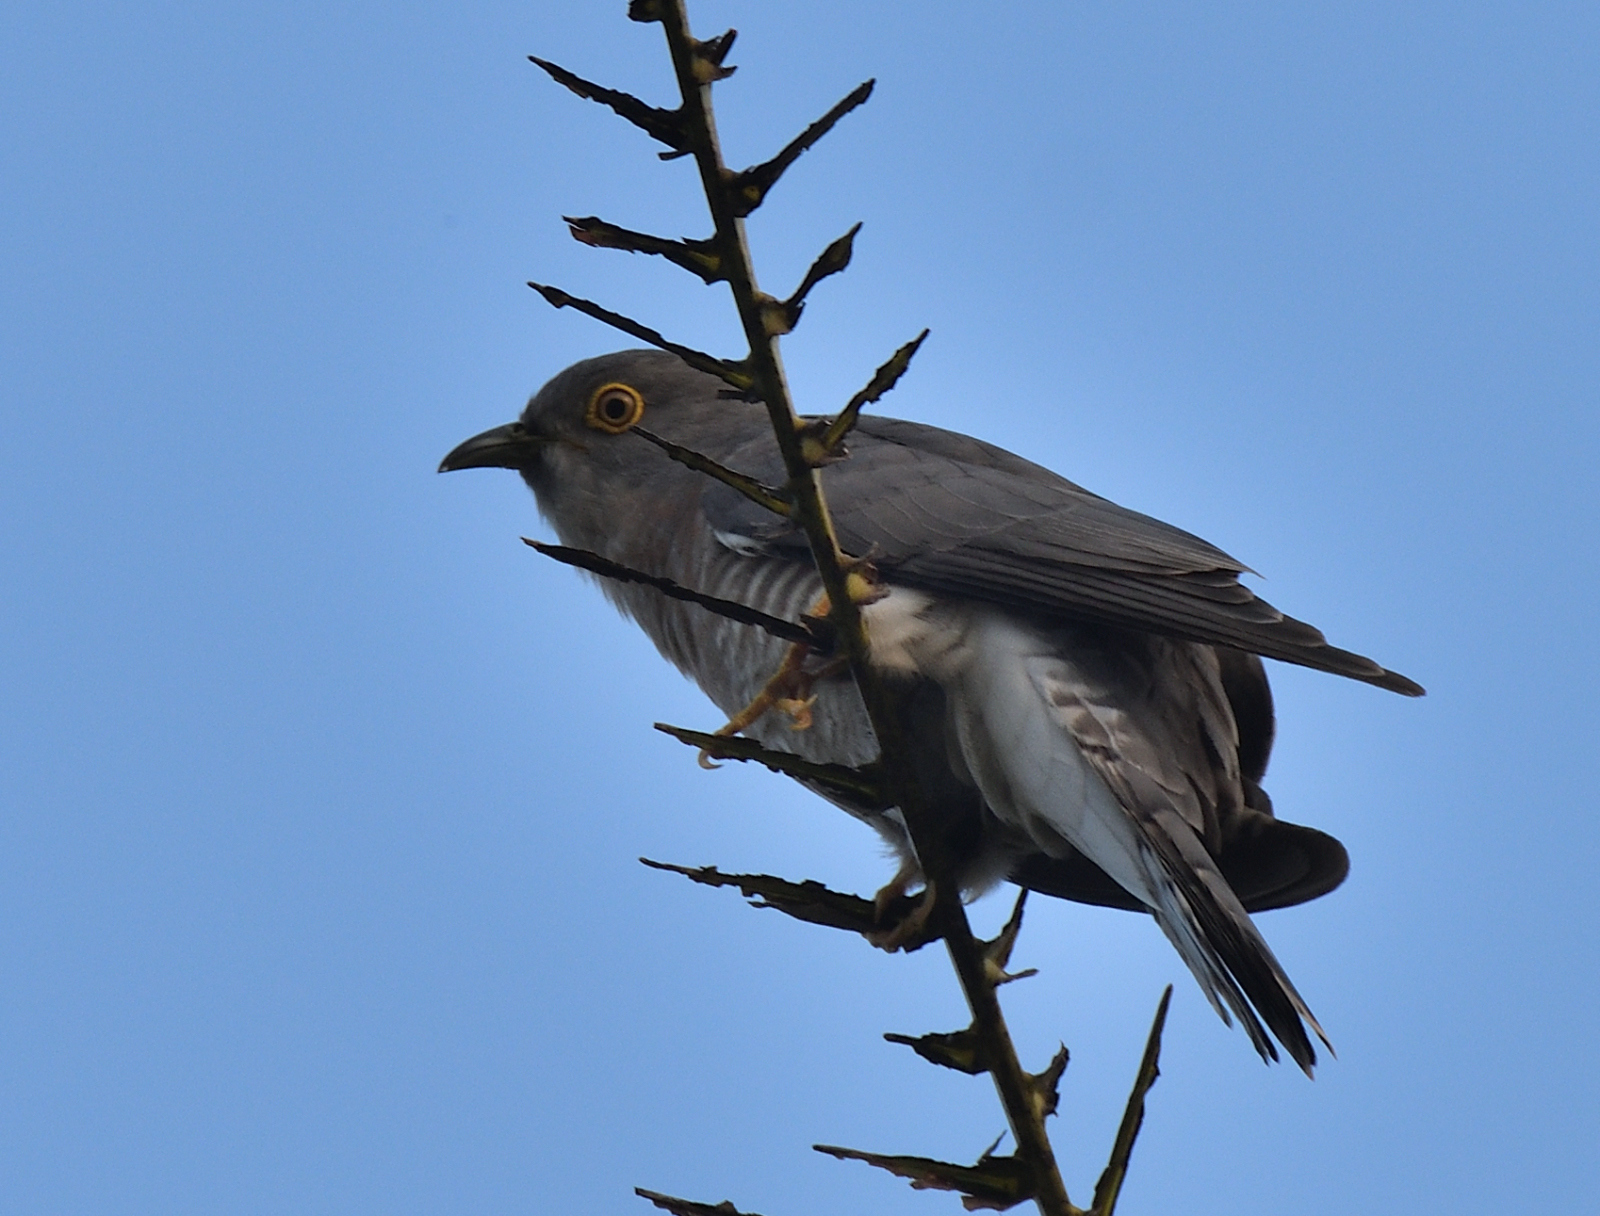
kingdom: Animalia
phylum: Chordata
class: Aves
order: Cuculiformes
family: Cuculidae
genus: Cuculus
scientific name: Cuculus varius
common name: Common hawk cuckoo
